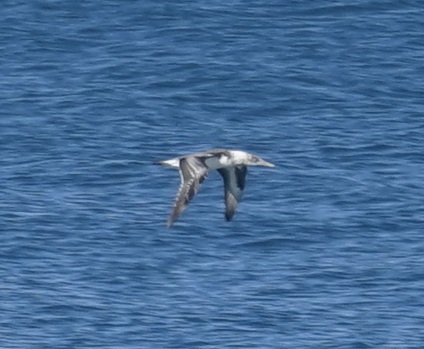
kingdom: Animalia
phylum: Chordata
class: Aves
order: Suliformes
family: Sulidae
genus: Morus
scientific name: Morus serrator
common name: Australasian gannet
